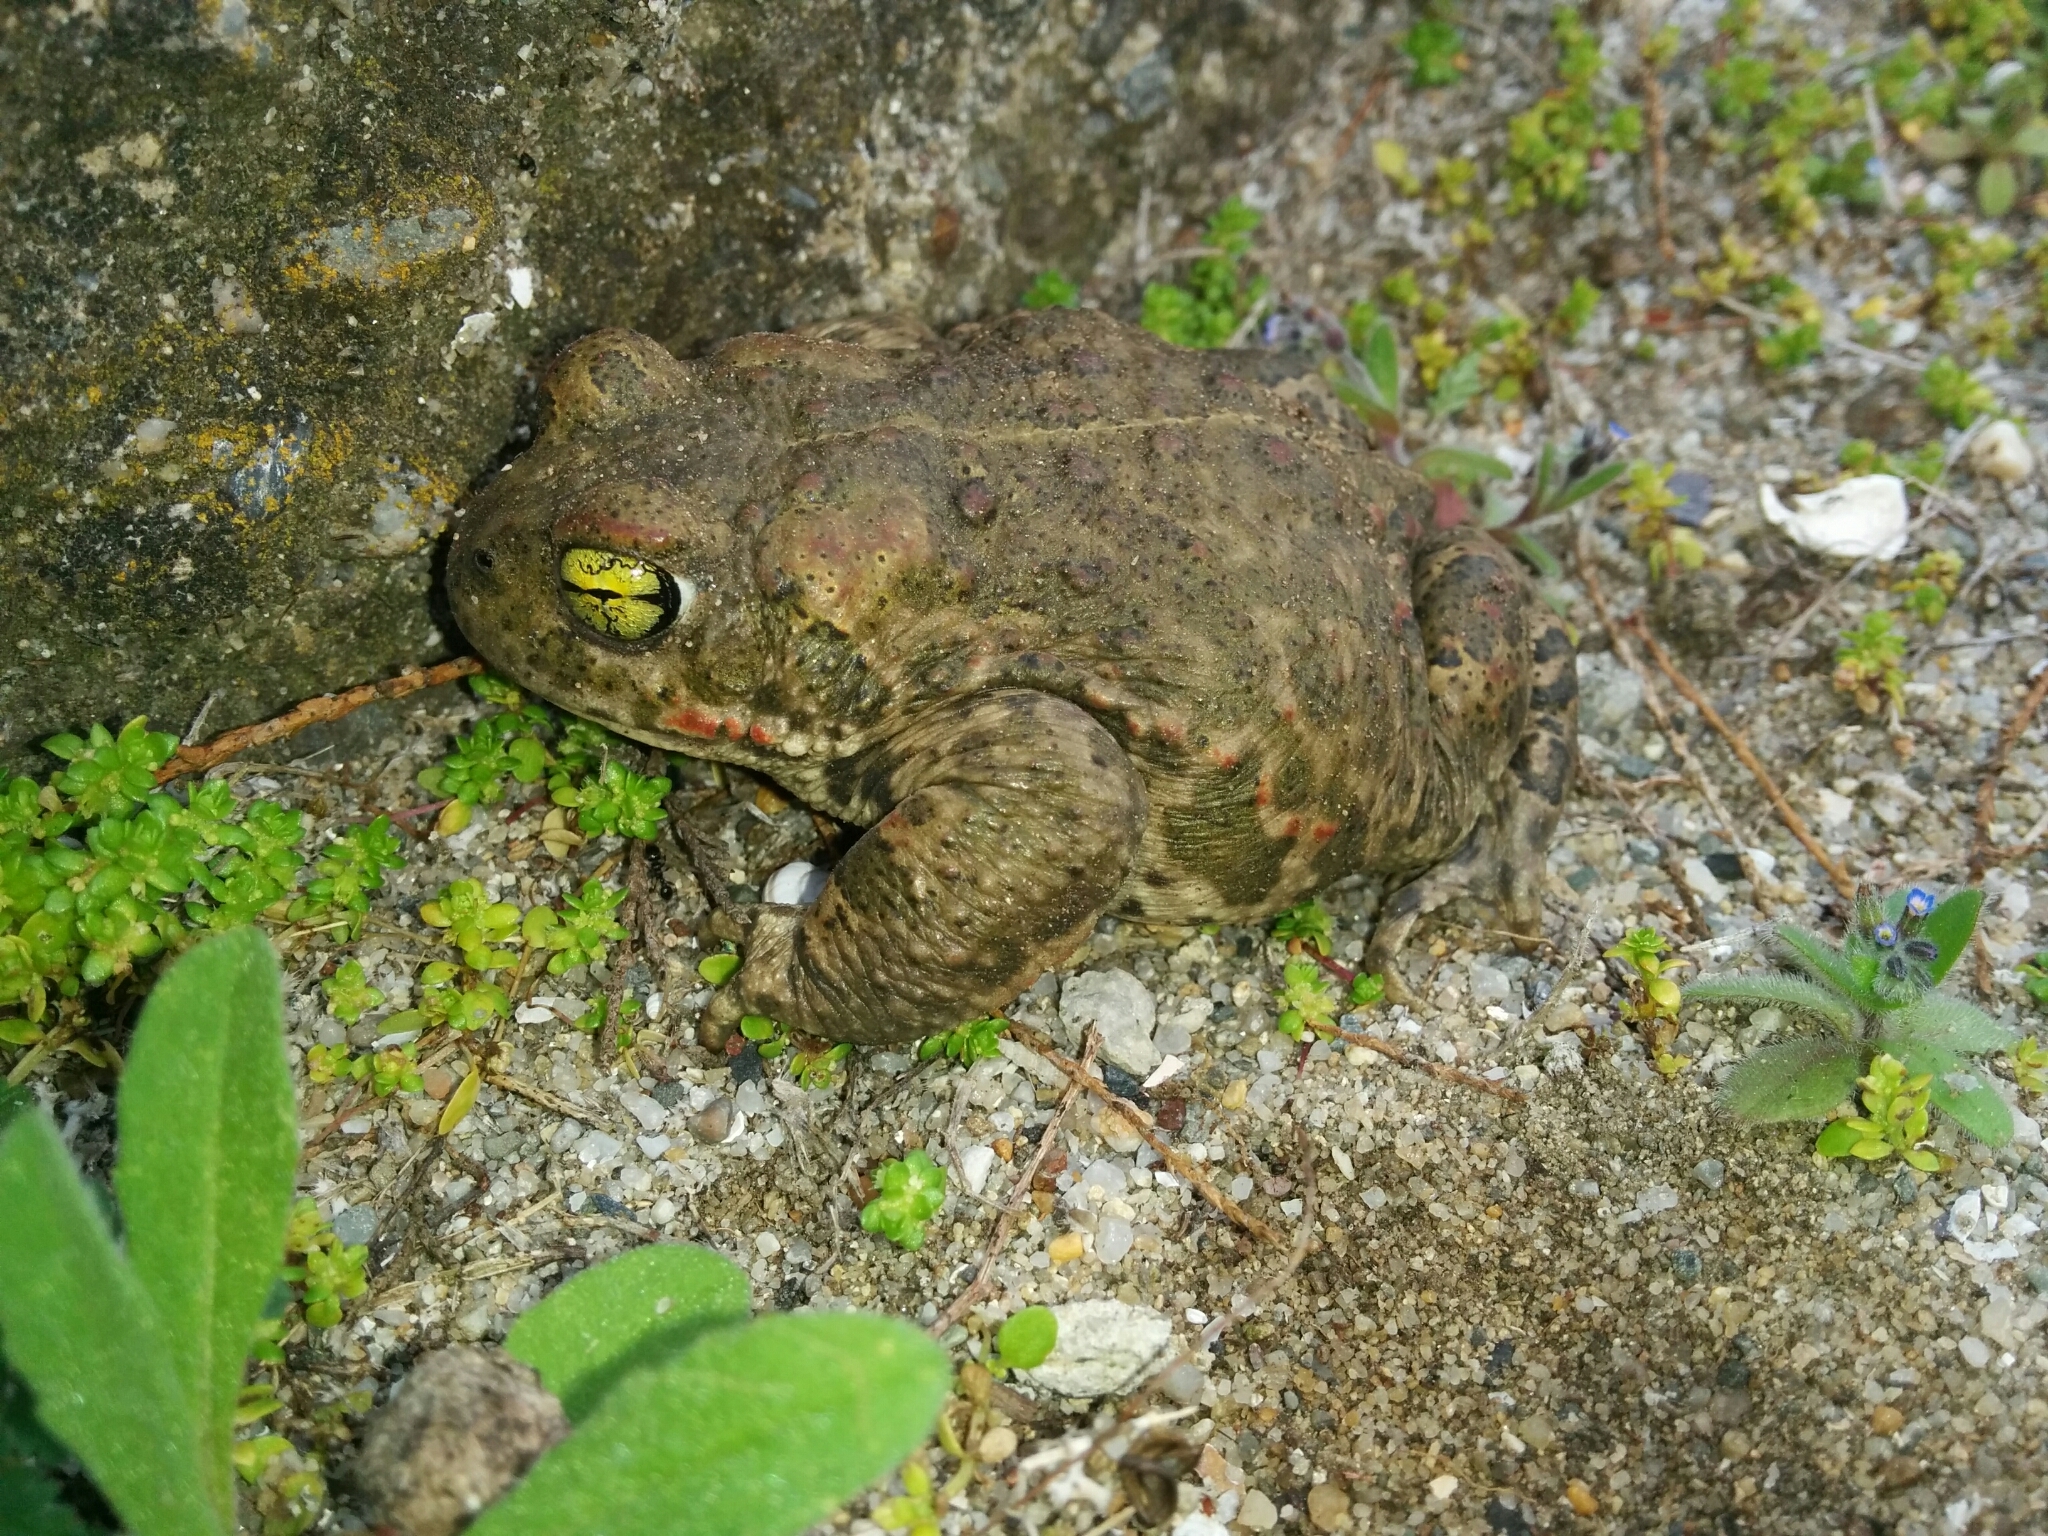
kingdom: Animalia
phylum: Chordata
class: Amphibia
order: Anura
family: Bufonidae
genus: Epidalea
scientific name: Epidalea calamita
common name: Natterjack toad
